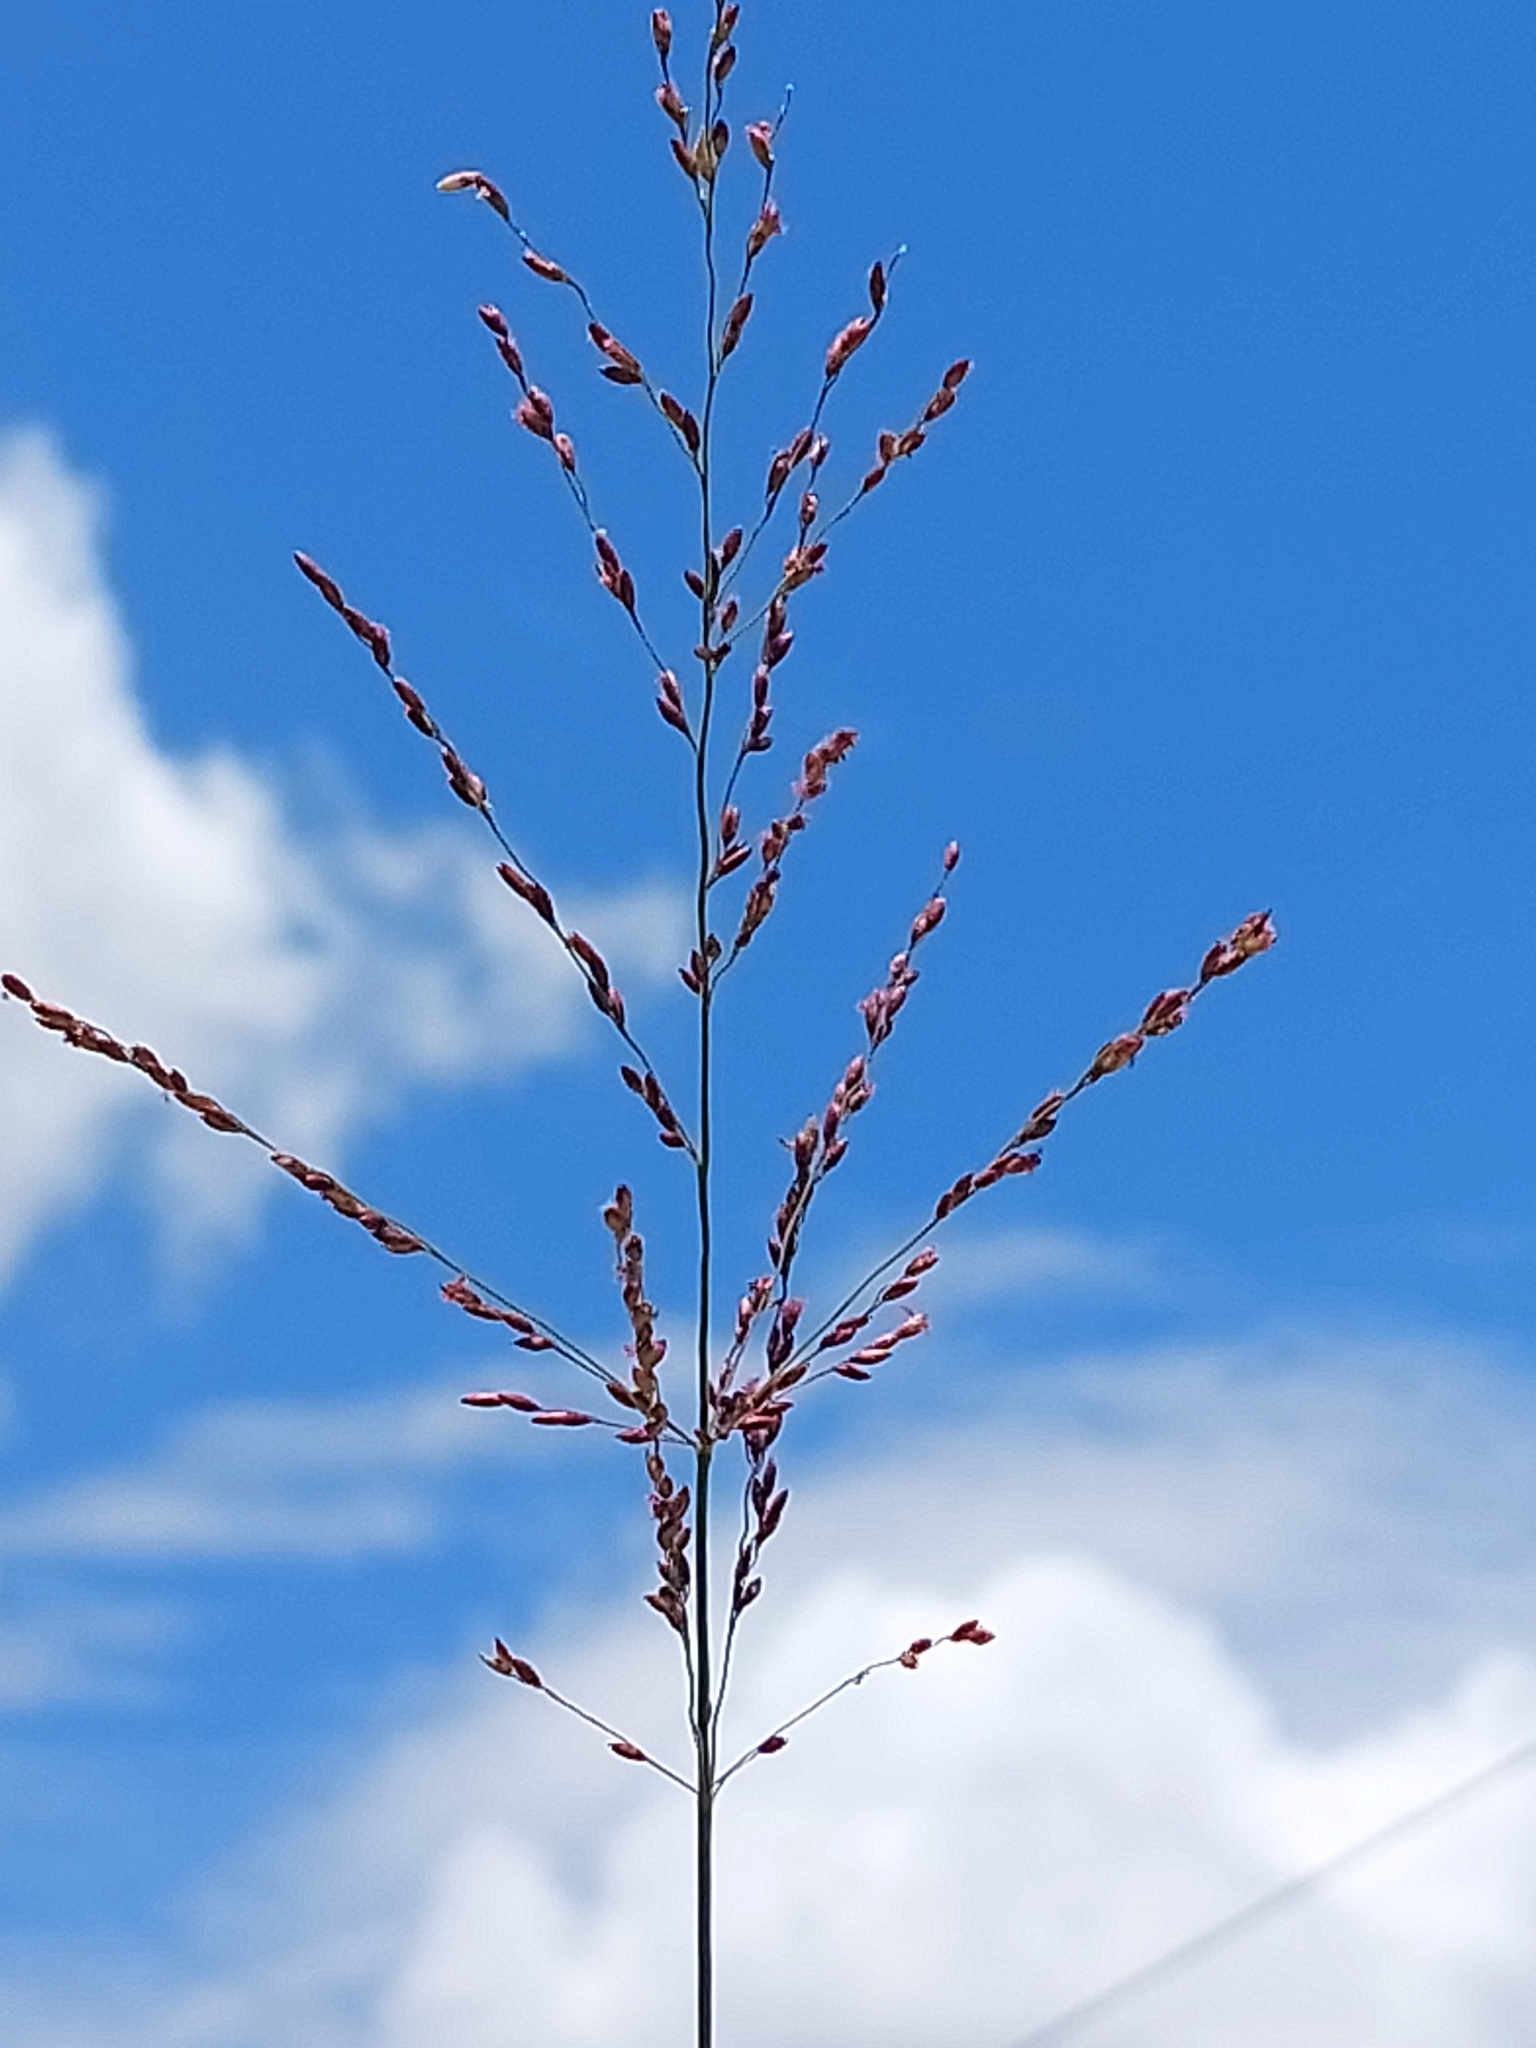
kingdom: Plantae
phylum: Tracheophyta
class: Liliopsida
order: Poales
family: Poaceae
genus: Megathyrsus
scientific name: Megathyrsus maximus
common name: Guineagrass
